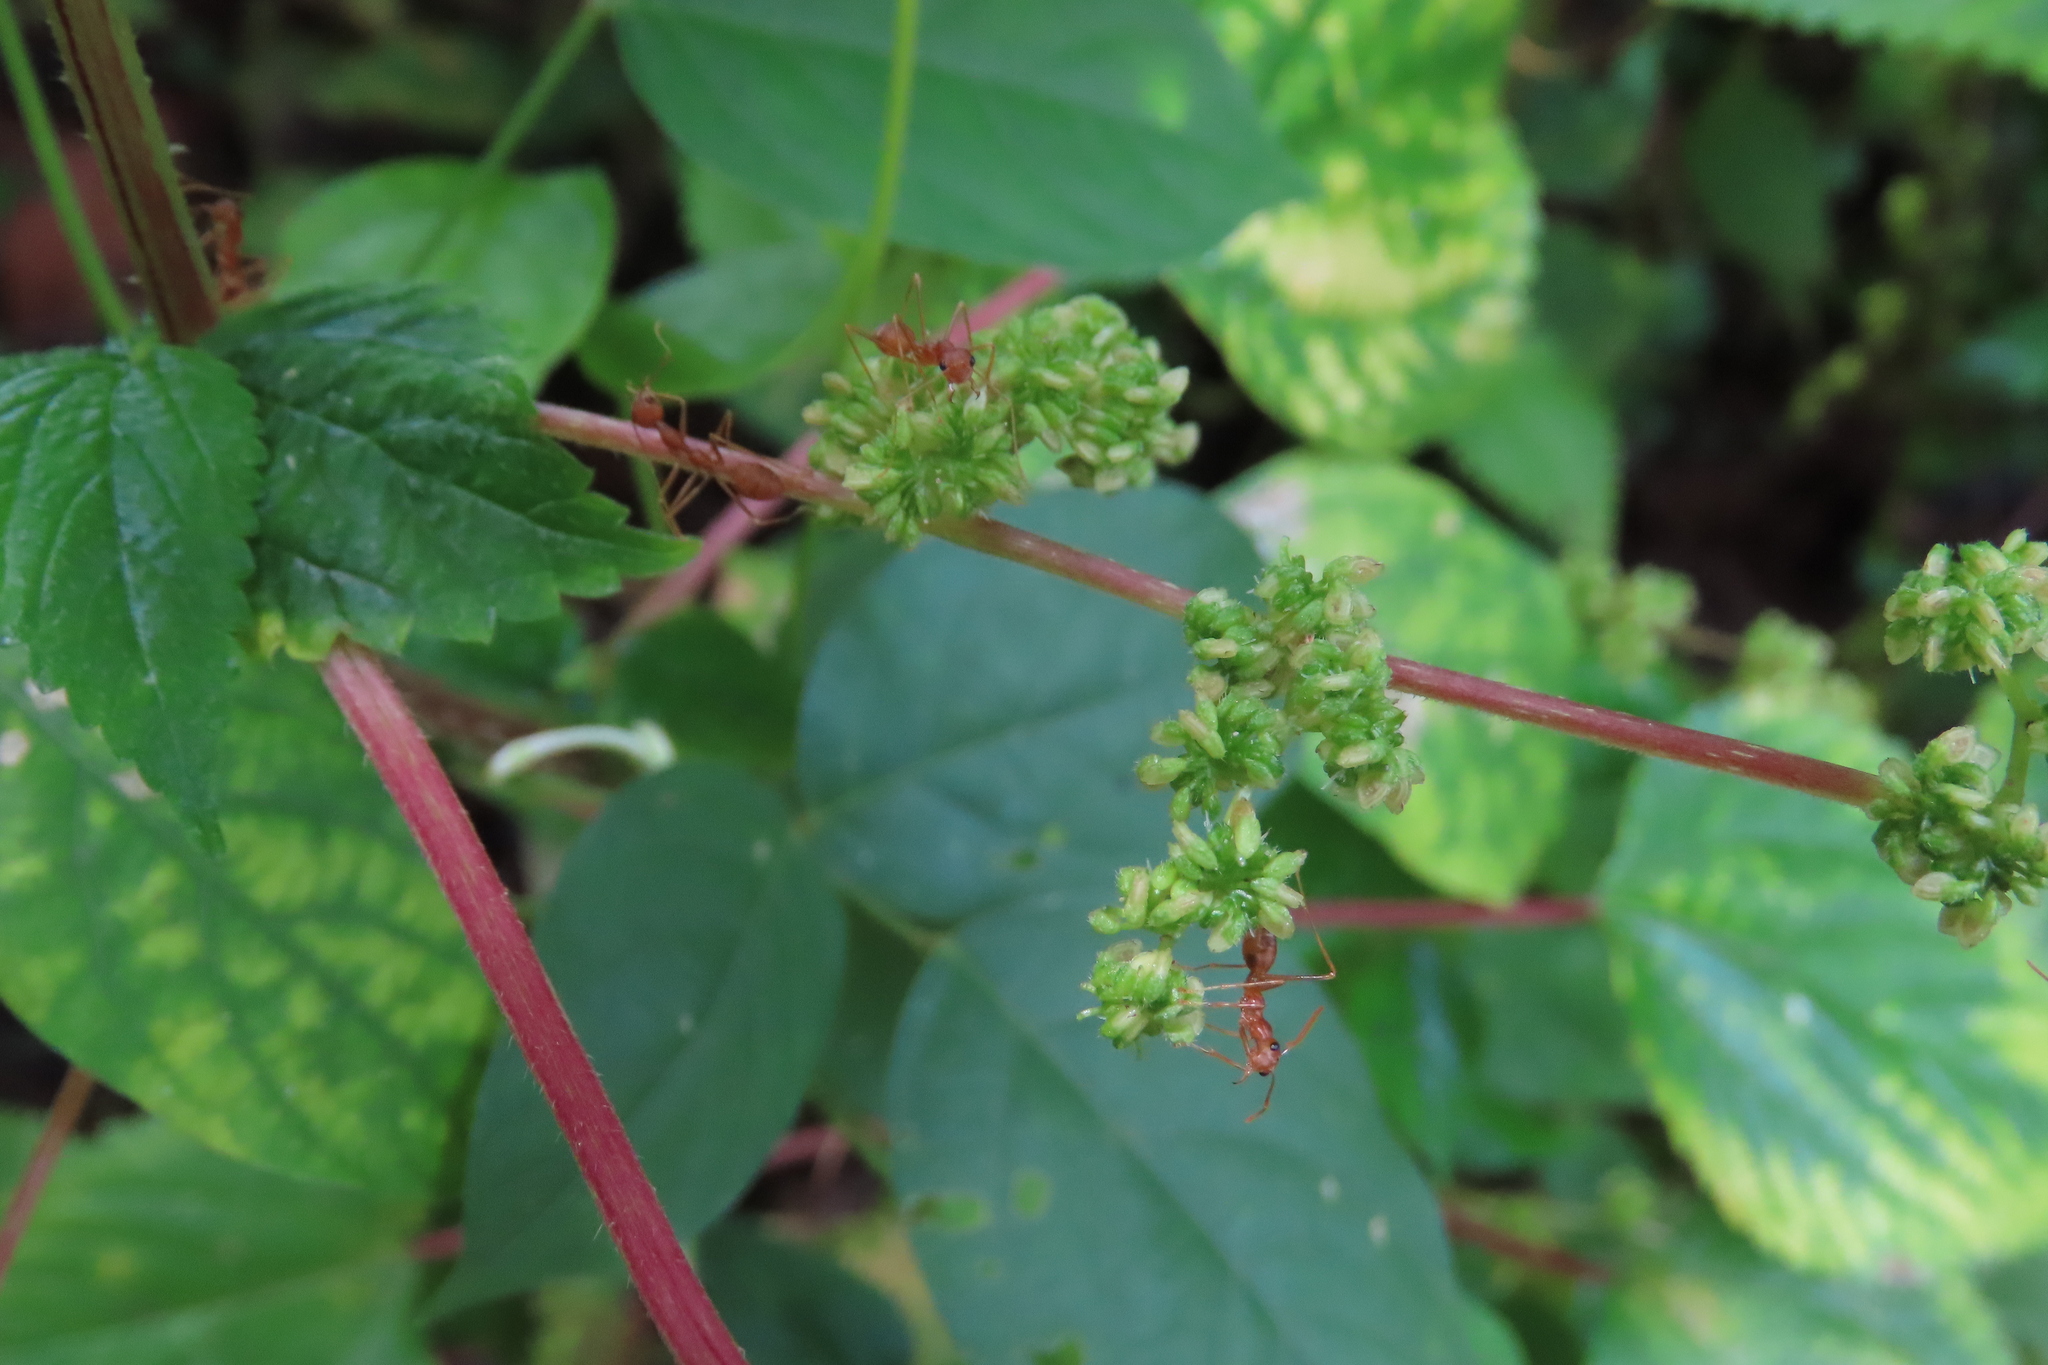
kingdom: Animalia
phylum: Arthropoda
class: Insecta
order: Hymenoptera
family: Formicidae
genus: Oecophylla
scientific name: Oecophylla smaragdina
